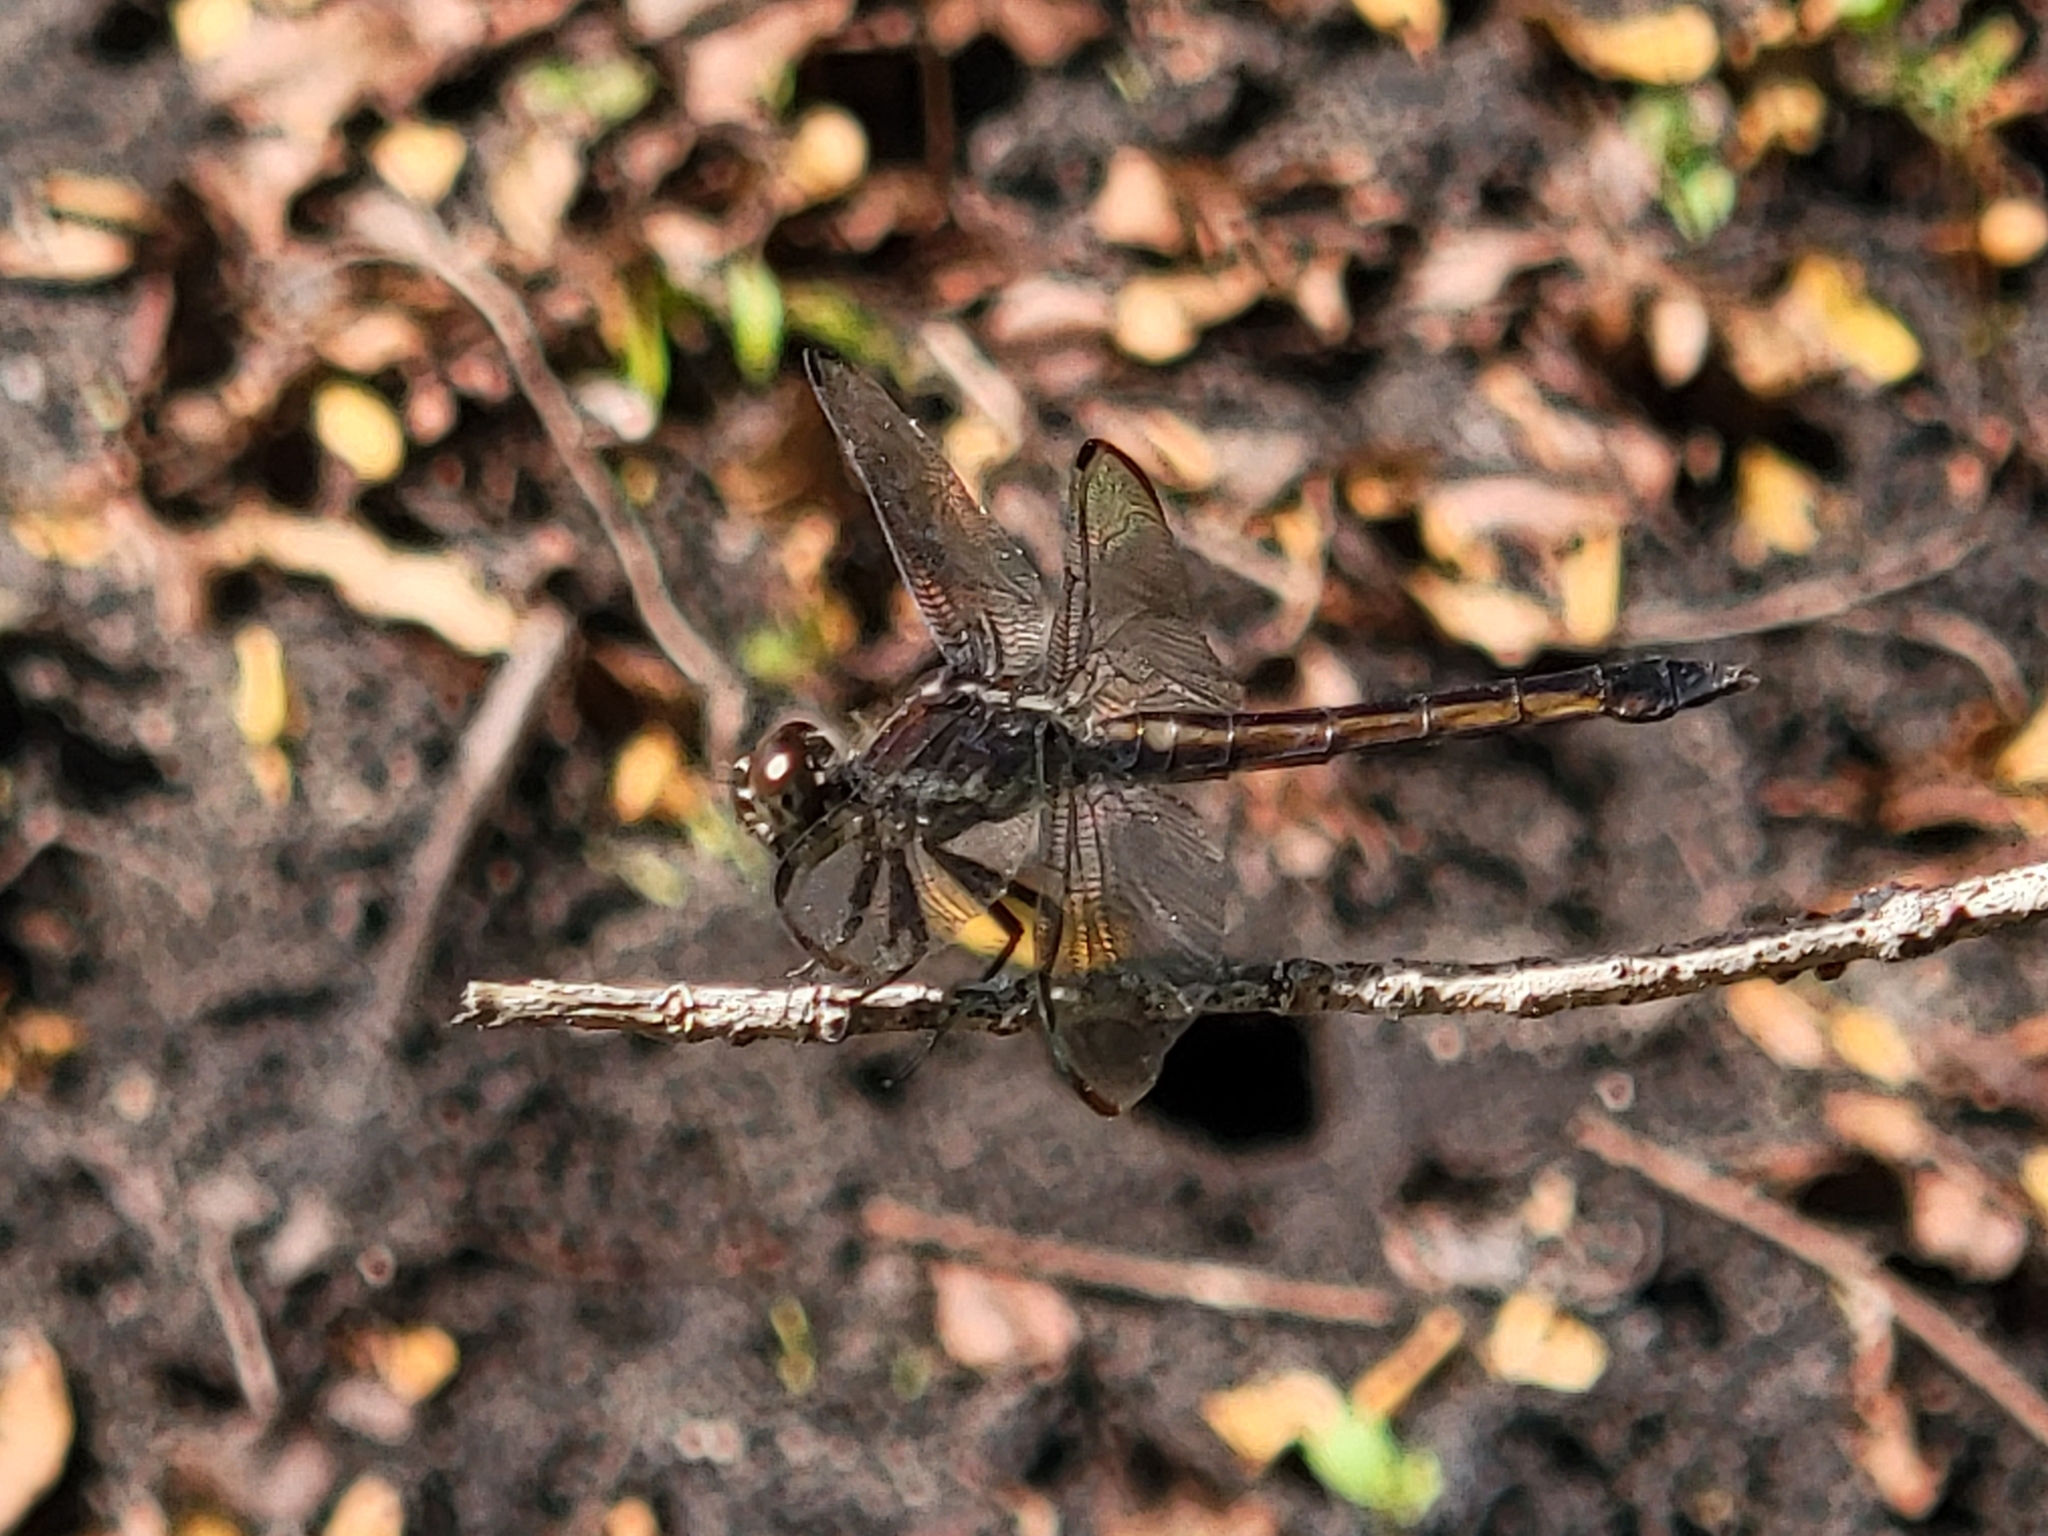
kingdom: Animalia
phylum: Arthropoda
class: Insecta
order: Odonata
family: Libellulidae
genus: Libellula
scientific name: Libellula incesta
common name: Slaty skimmer
